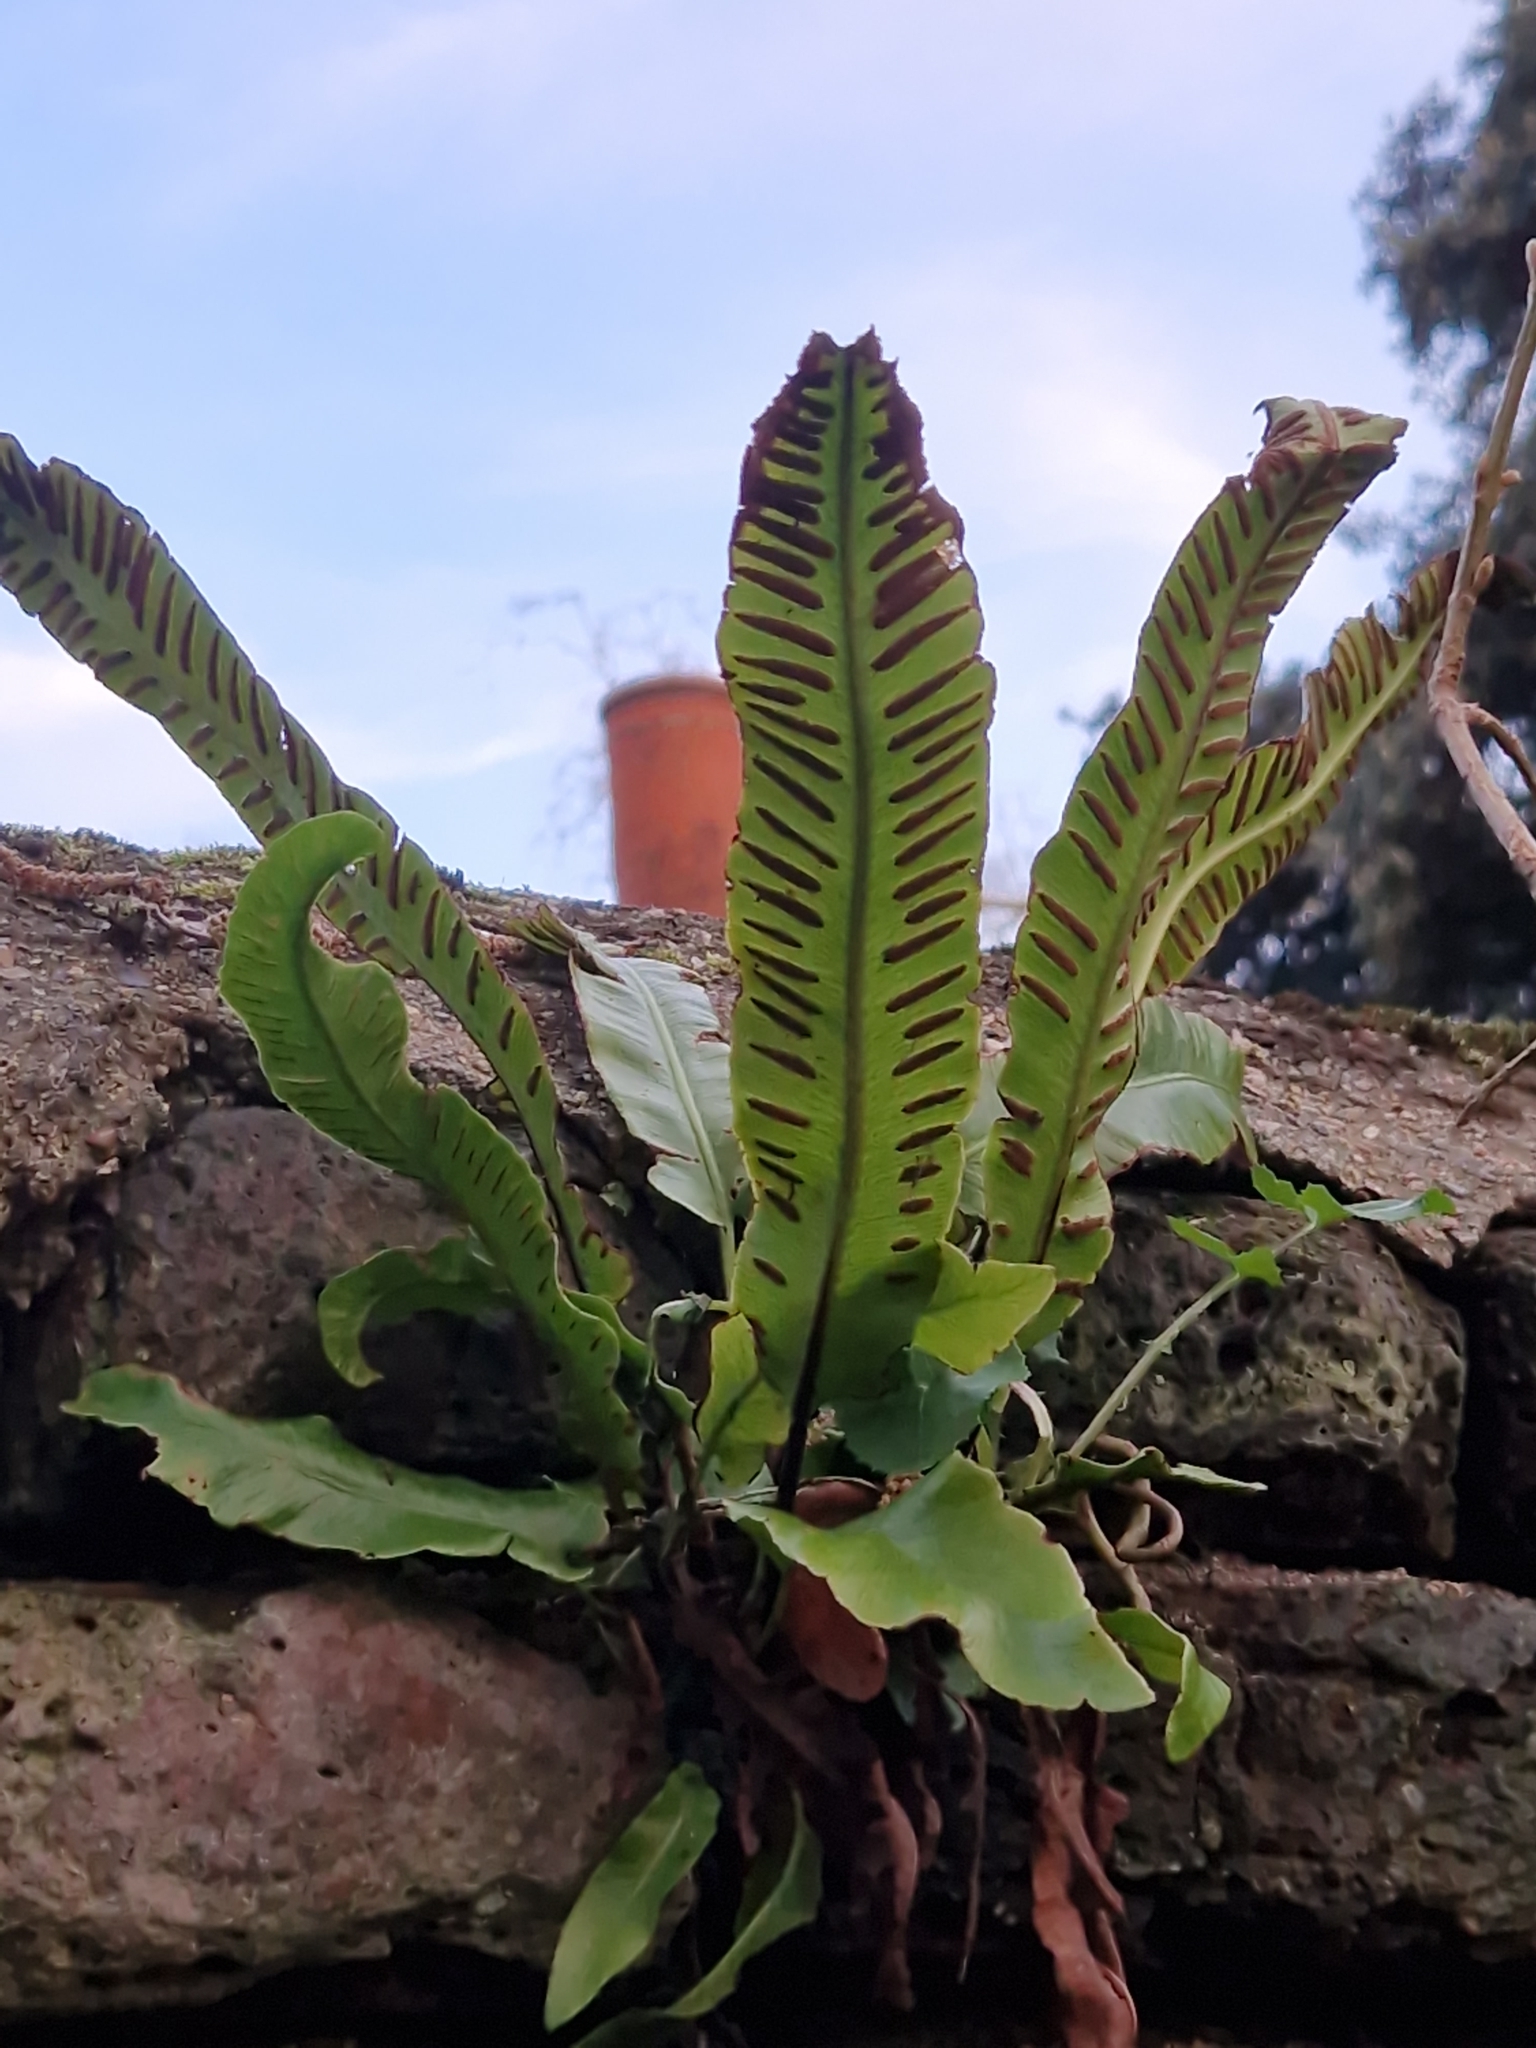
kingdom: Plantae
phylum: Tracheophyta
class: Polypodiopsida
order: Polypodiales
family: Aspleniaceae
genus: Asplenium
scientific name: Asplenium scolopendrium
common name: Hart's-tongue fern
